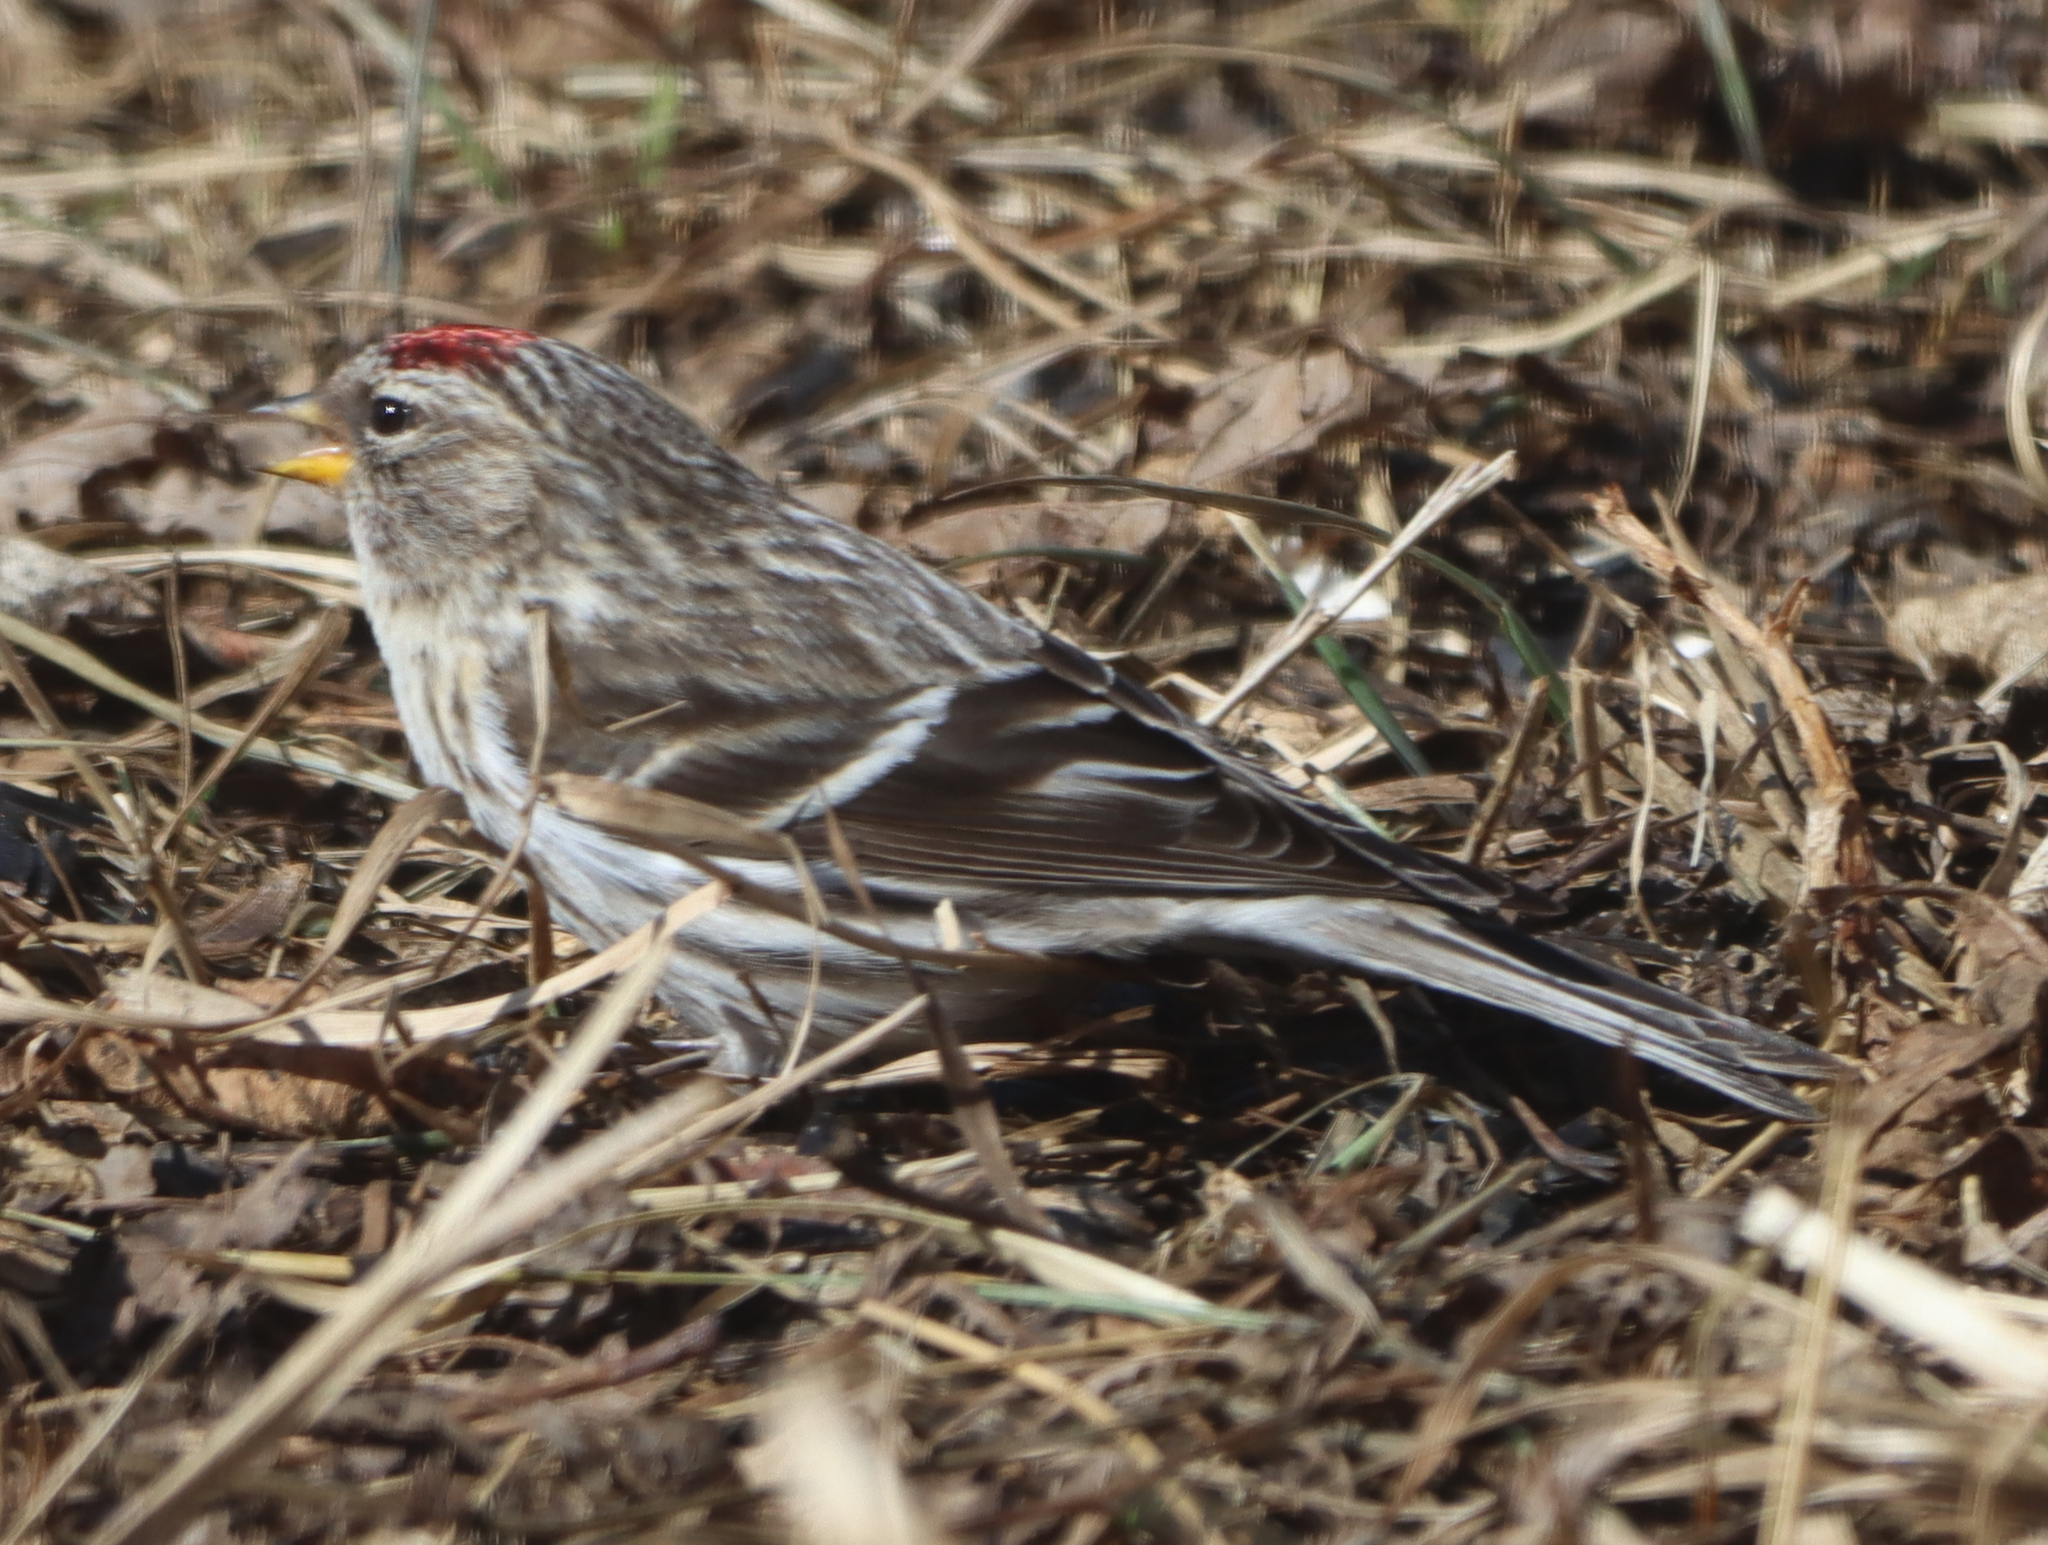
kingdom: Animalia
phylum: Chordata
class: Aves
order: Passeriformes
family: Fringillidae
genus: Acanthis
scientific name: Acanthis flammea
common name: Common redpoll
